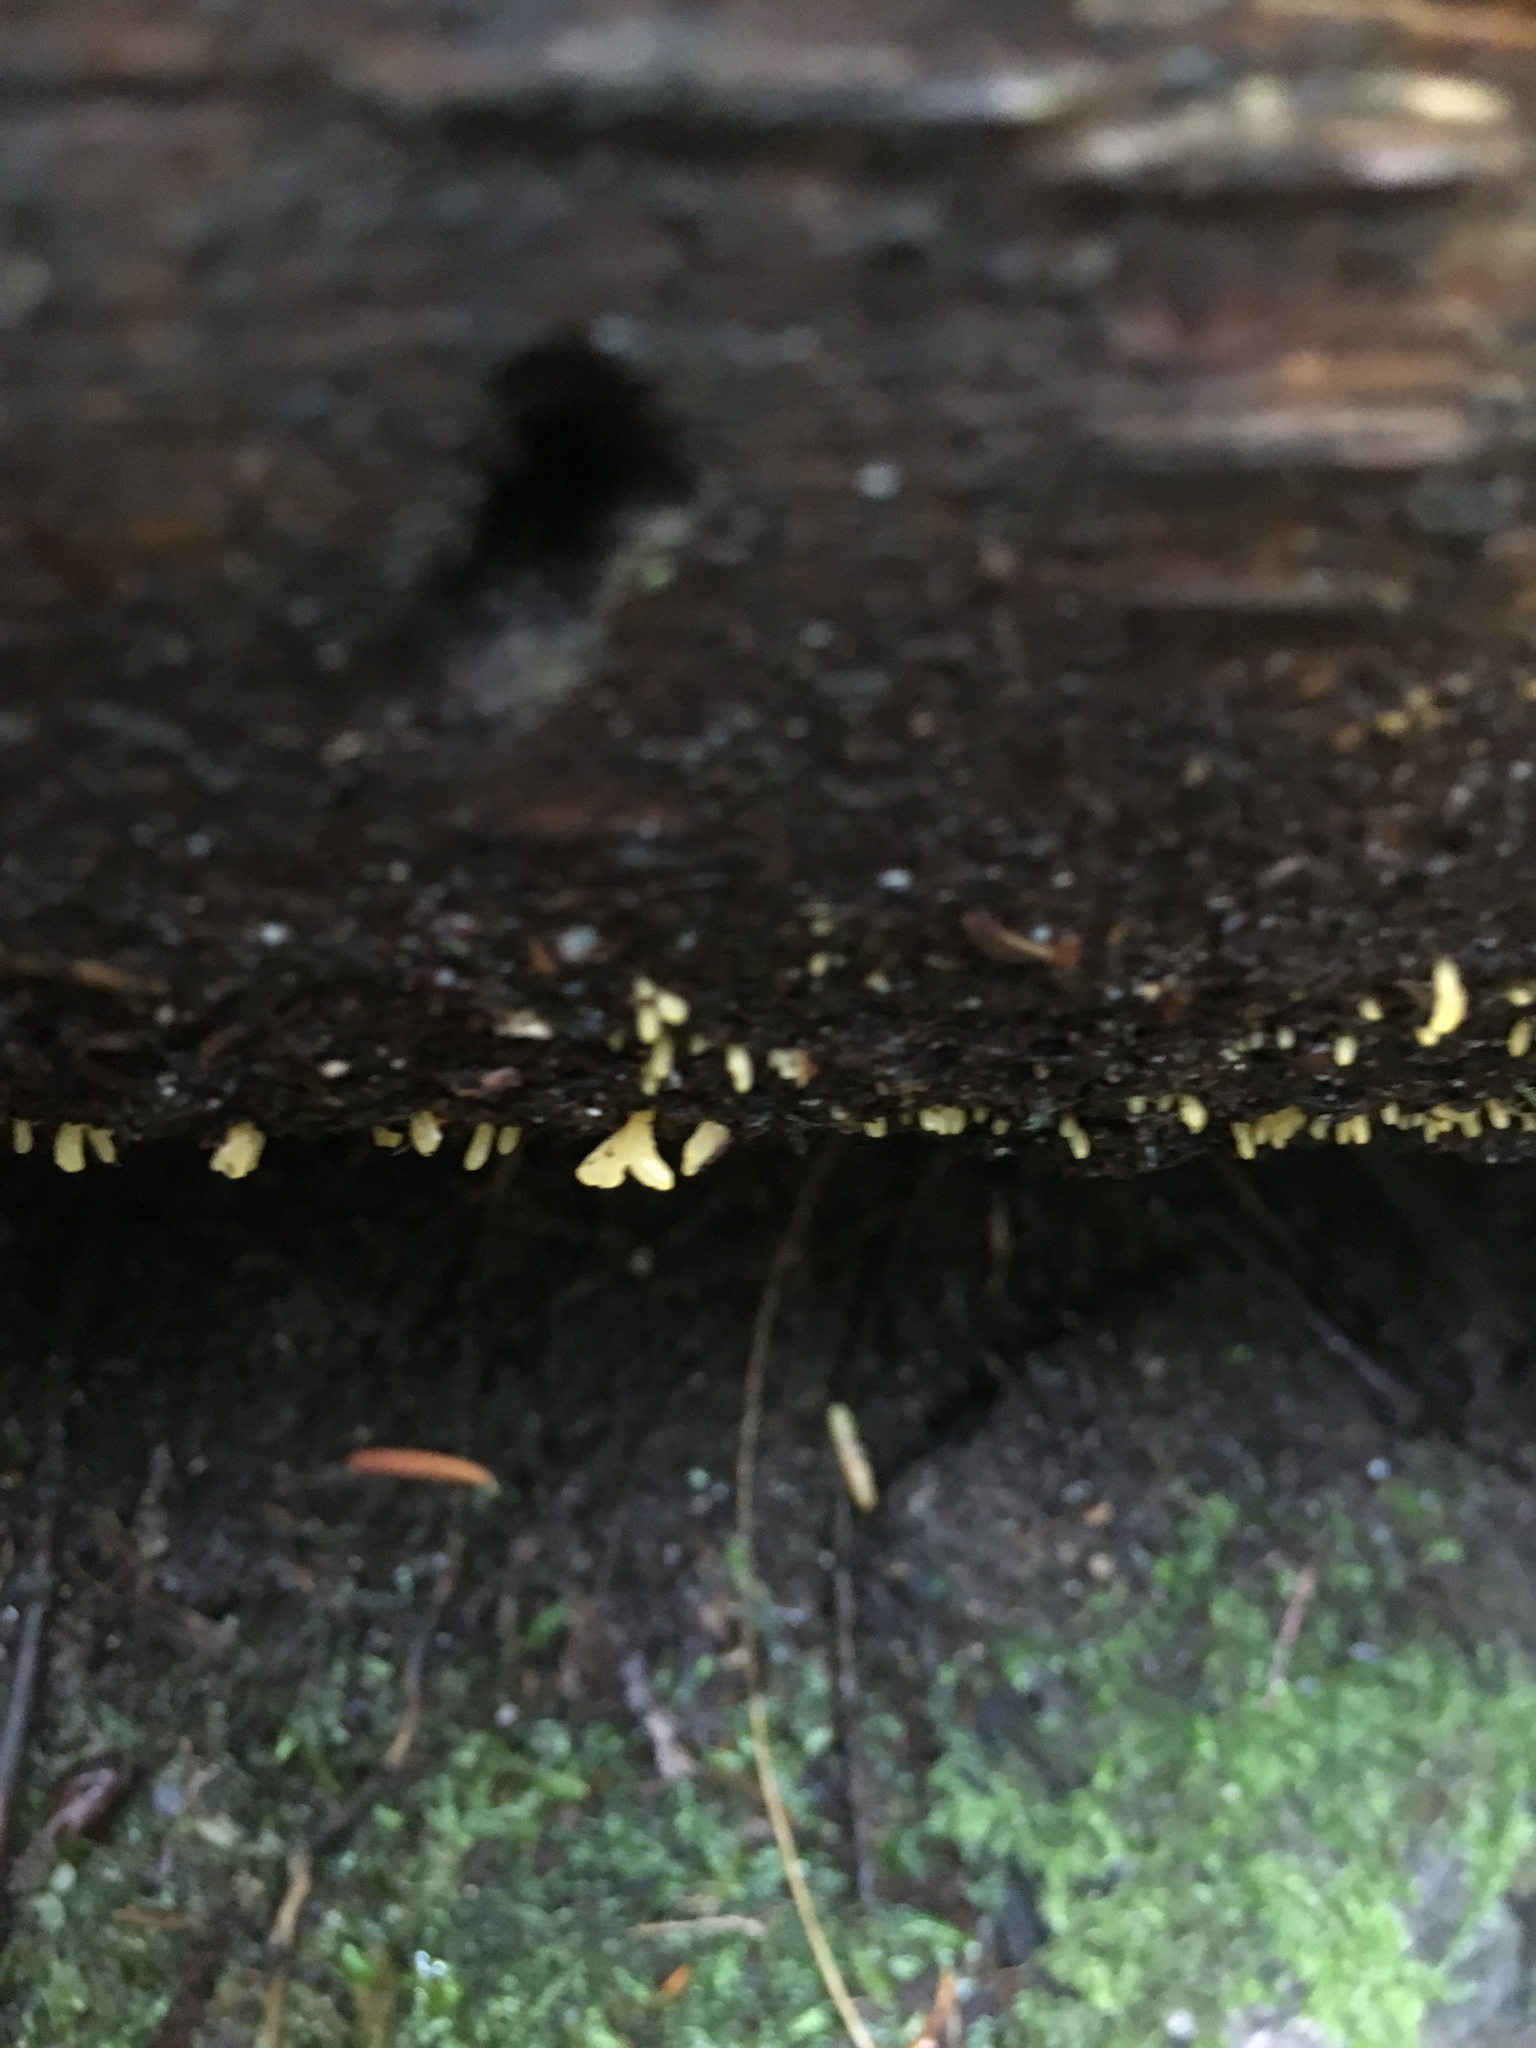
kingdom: Fungi
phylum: Basidiomycota
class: Dacrymycetes
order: Dacrymycetales
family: Dacrymycetaceae
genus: Calocera
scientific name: Calocera cornea
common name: Small stagshorn
